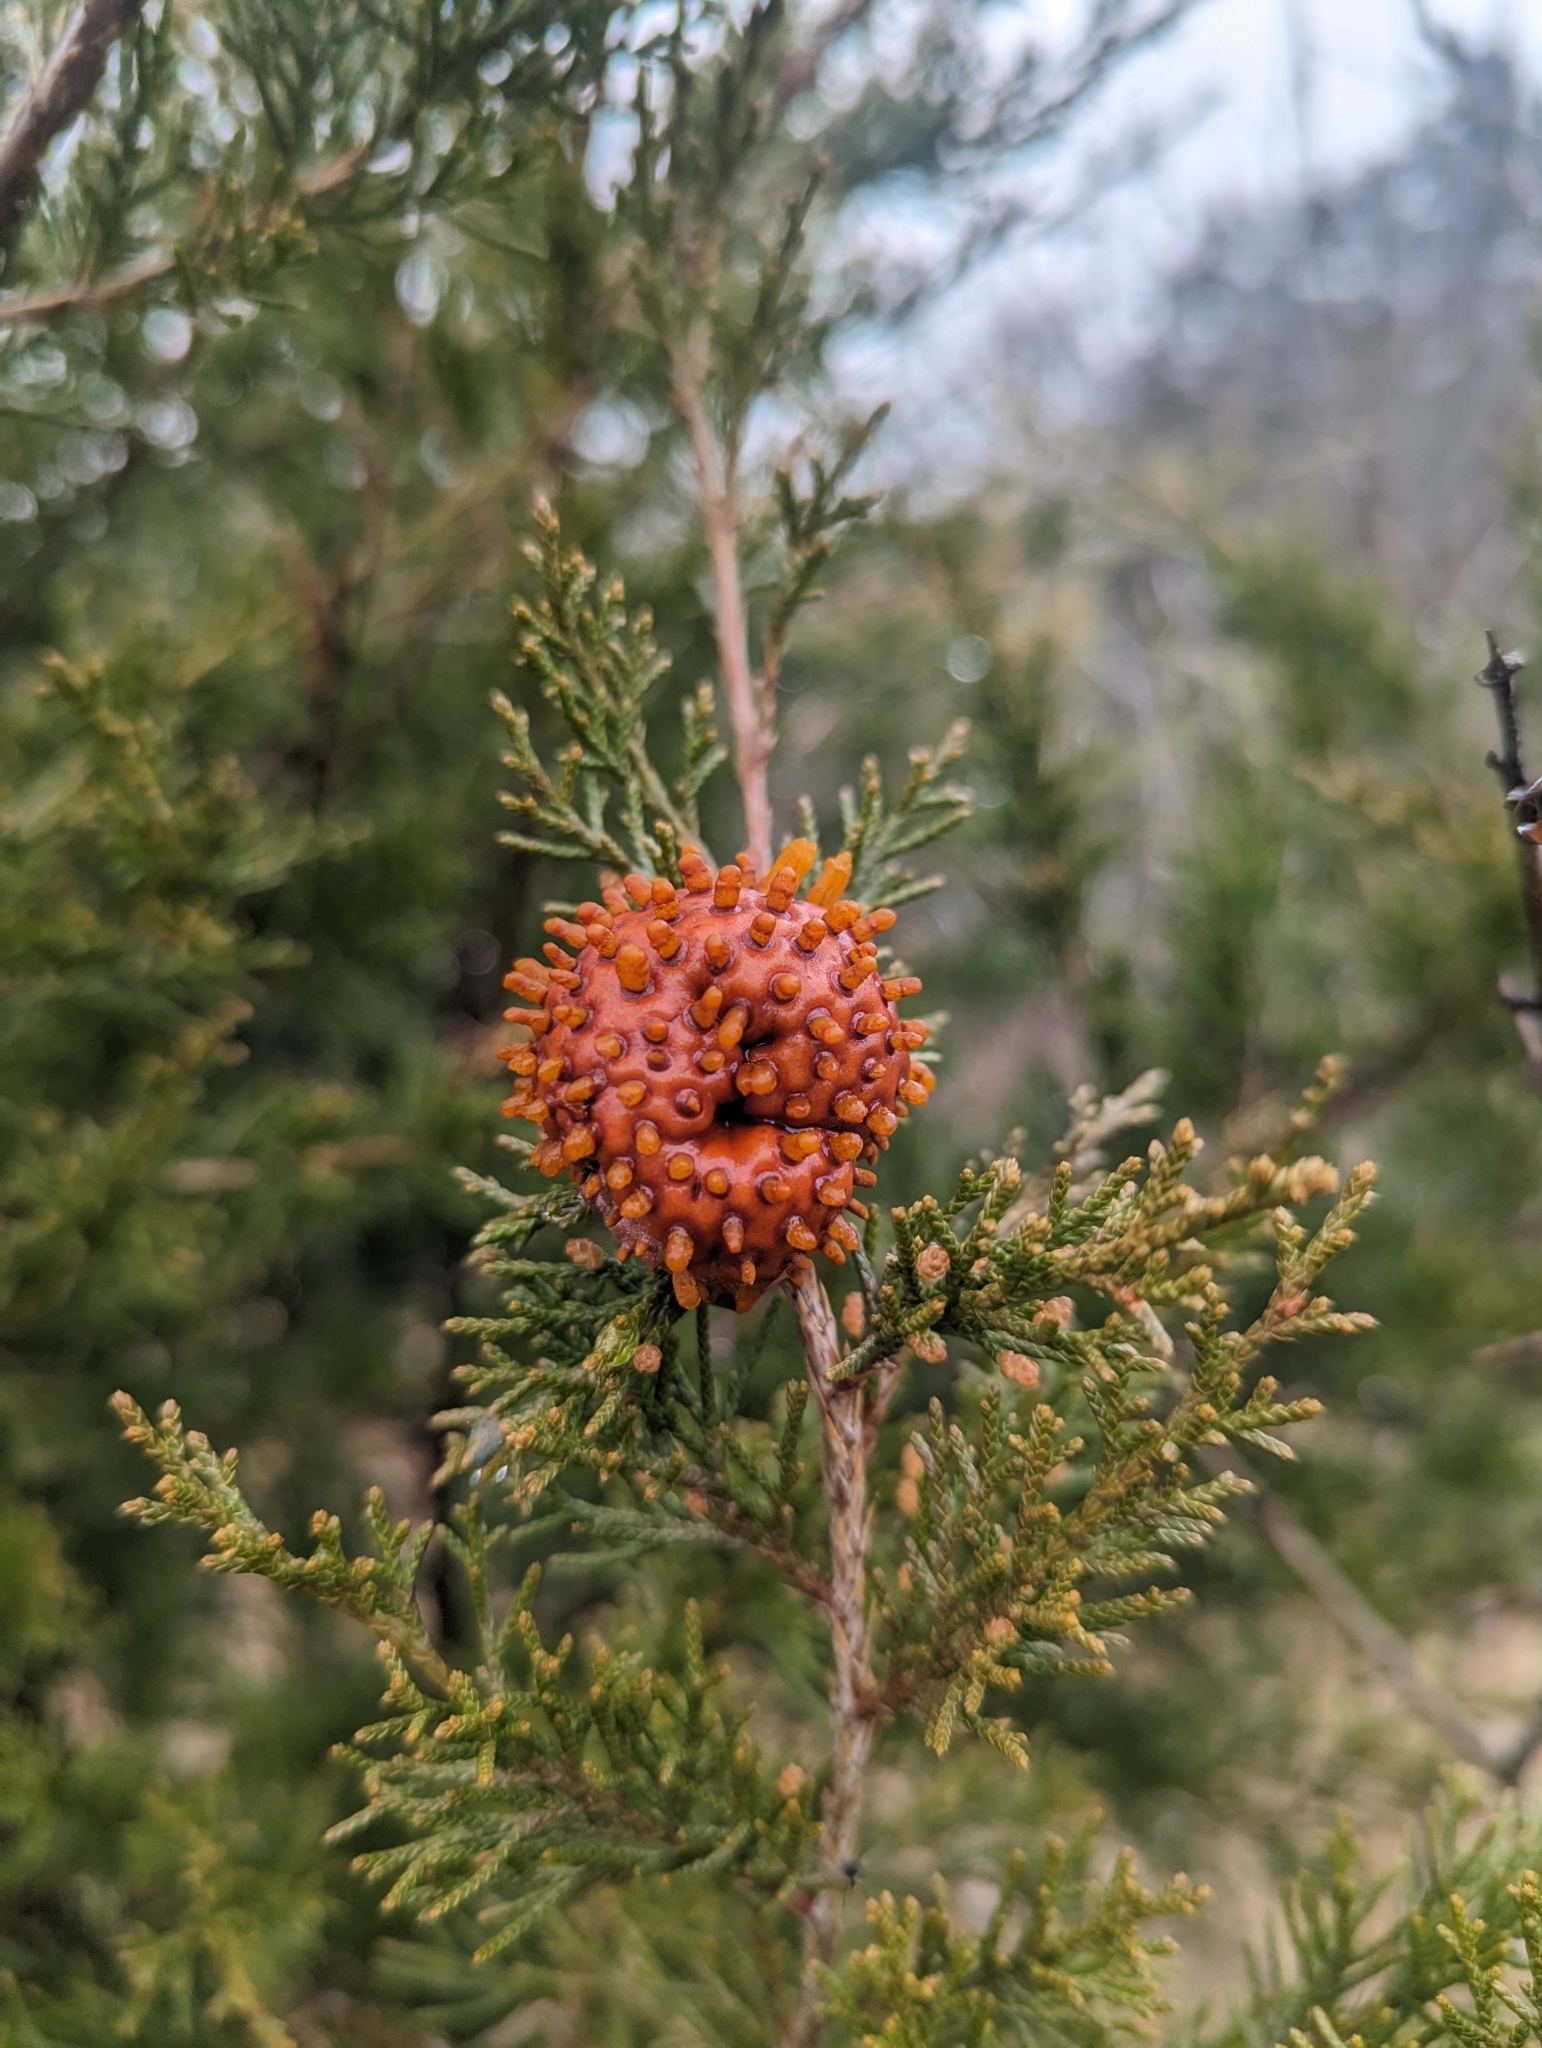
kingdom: Fungi
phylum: Basidiomycota
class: Pucciniomycetes
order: Pucciniales
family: Gymnosporangiaceae
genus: Gymnosporangium
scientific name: Gymnosporangium juniperi-virginianae
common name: Juniper-apple rust
